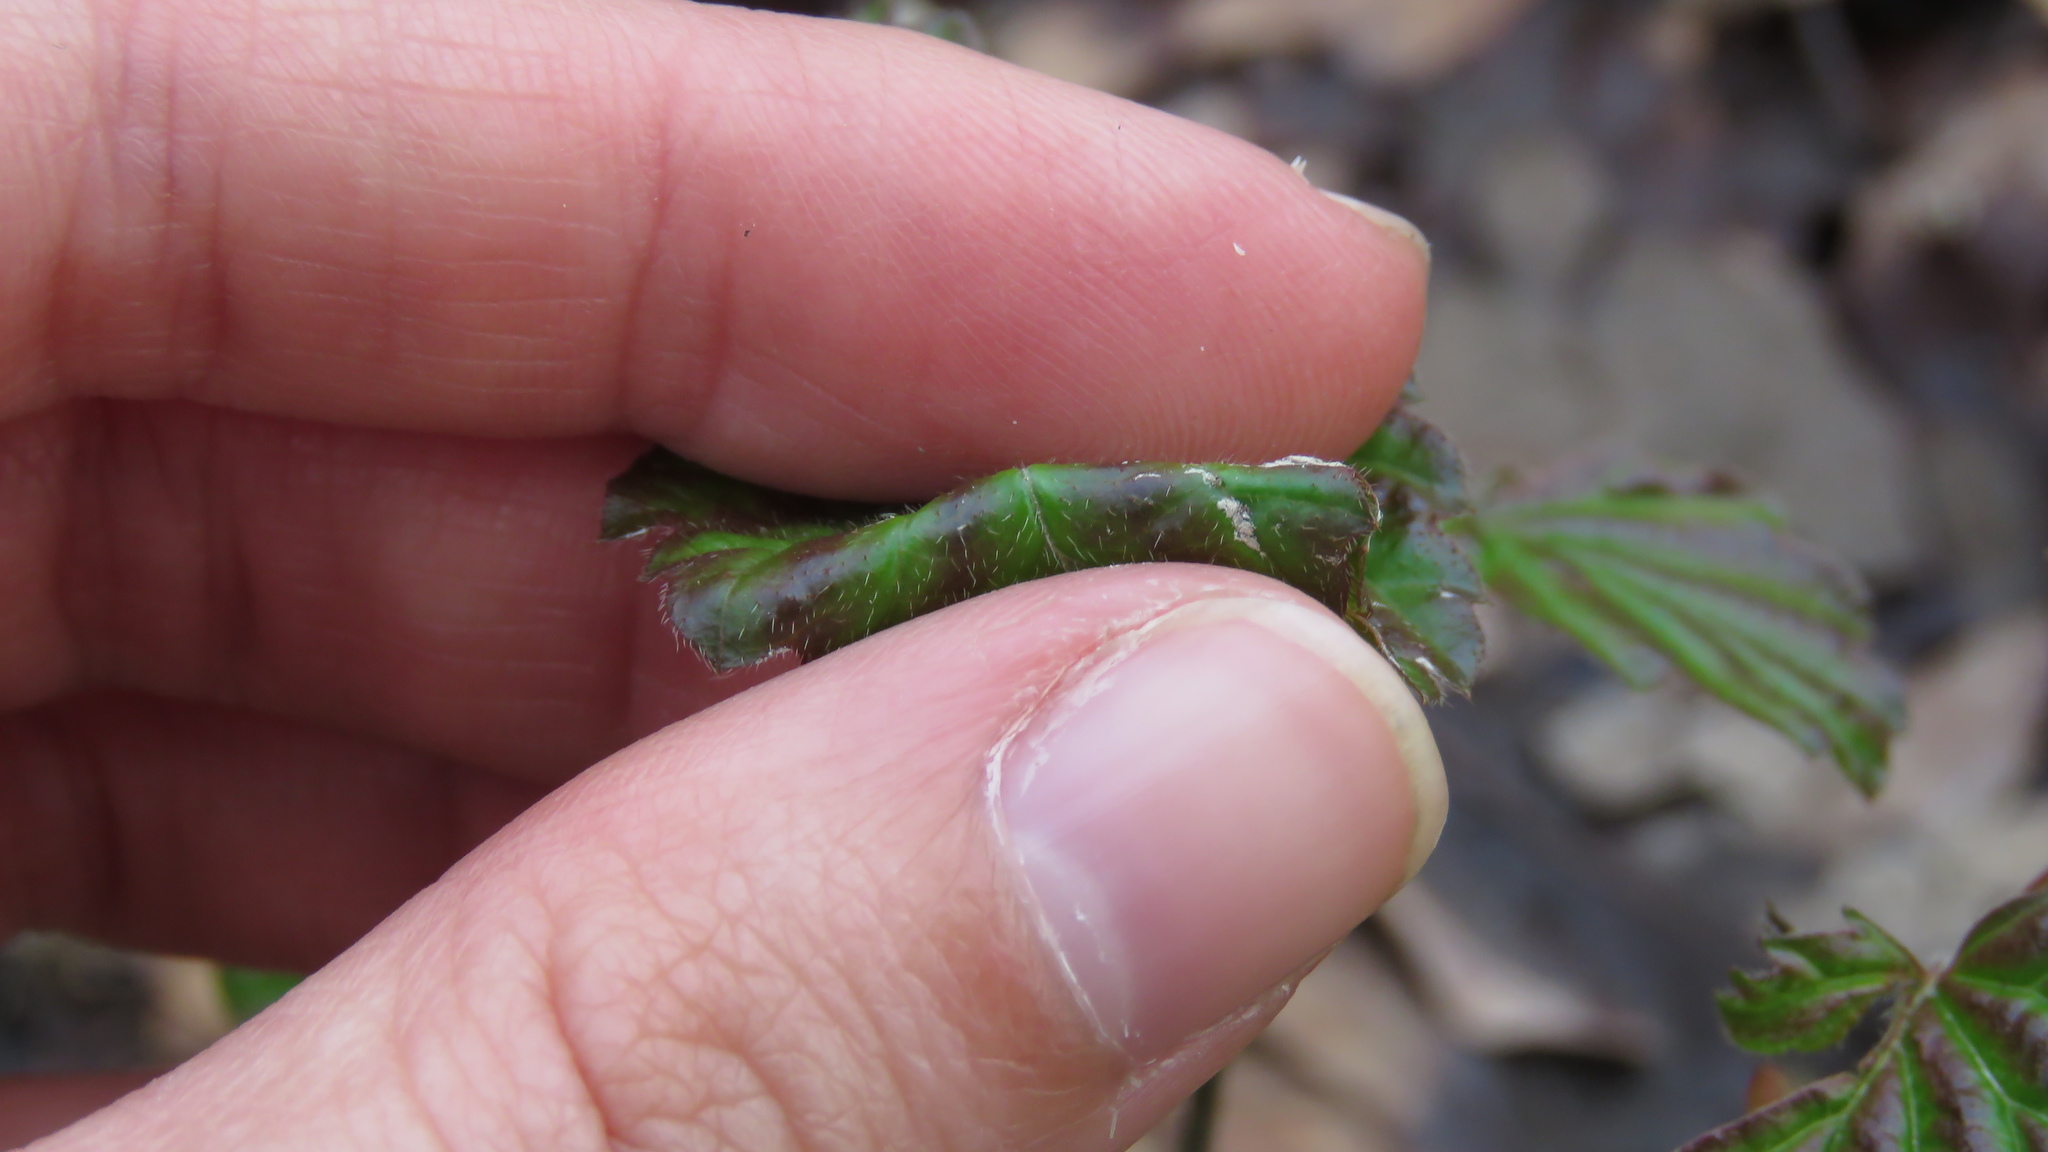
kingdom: Plantae
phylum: Tracheophyta
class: Magnoliopsida
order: Dipsacales
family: Viburnaceae
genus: Viburnum
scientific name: Viburnum recognitum
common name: Northern arrow-wood
